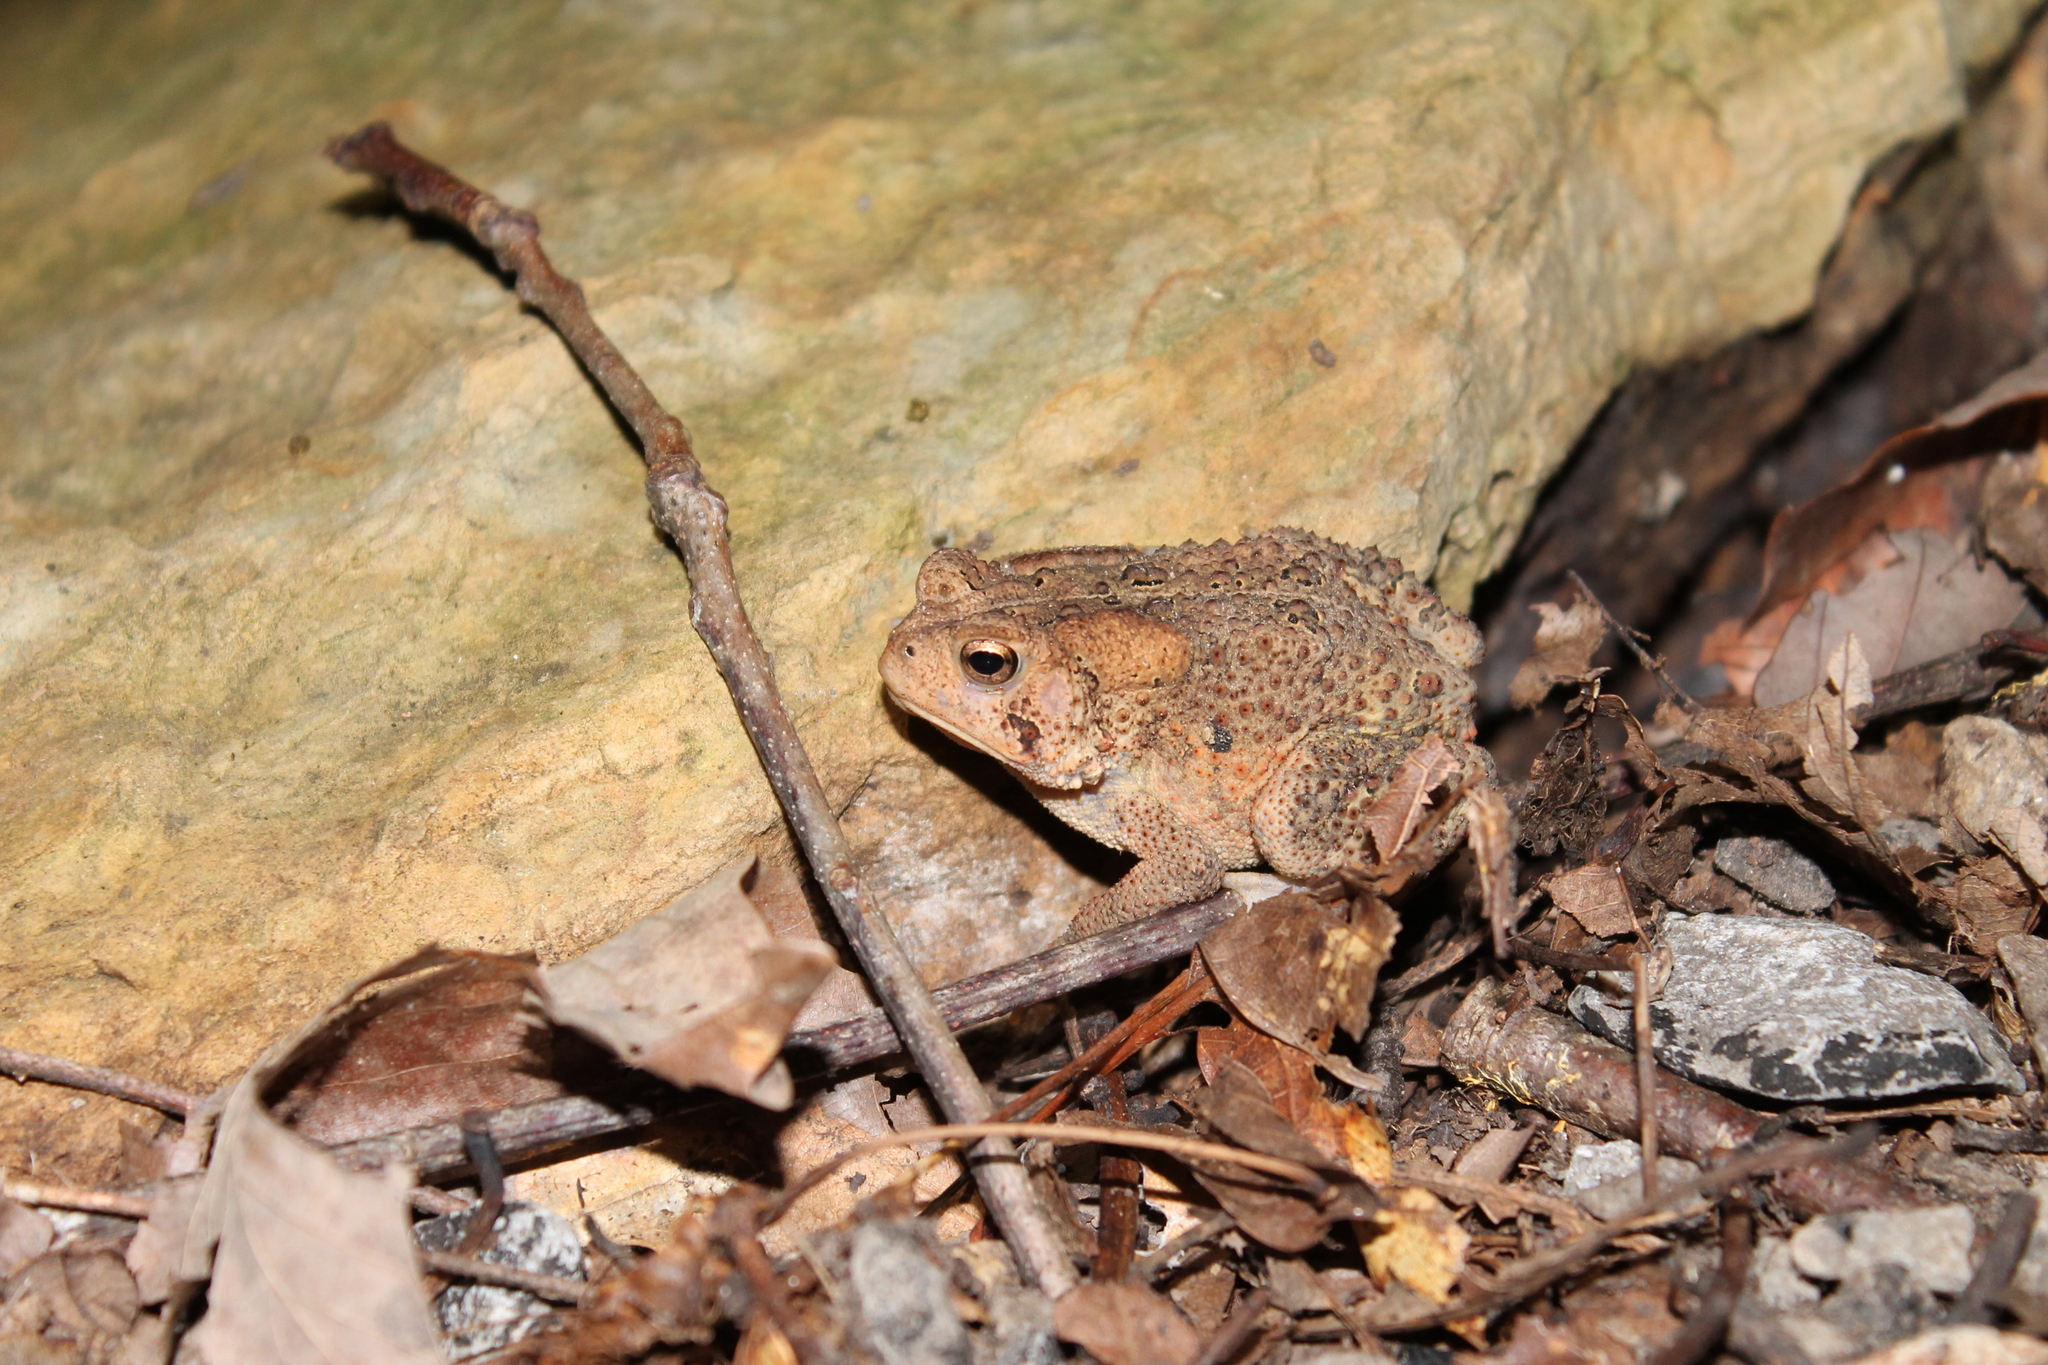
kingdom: Animalia
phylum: Chordata
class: Amphibia
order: Anura
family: Bufonidae
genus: Anaxyrus
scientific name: Anaxyrus americanus
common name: American toad
